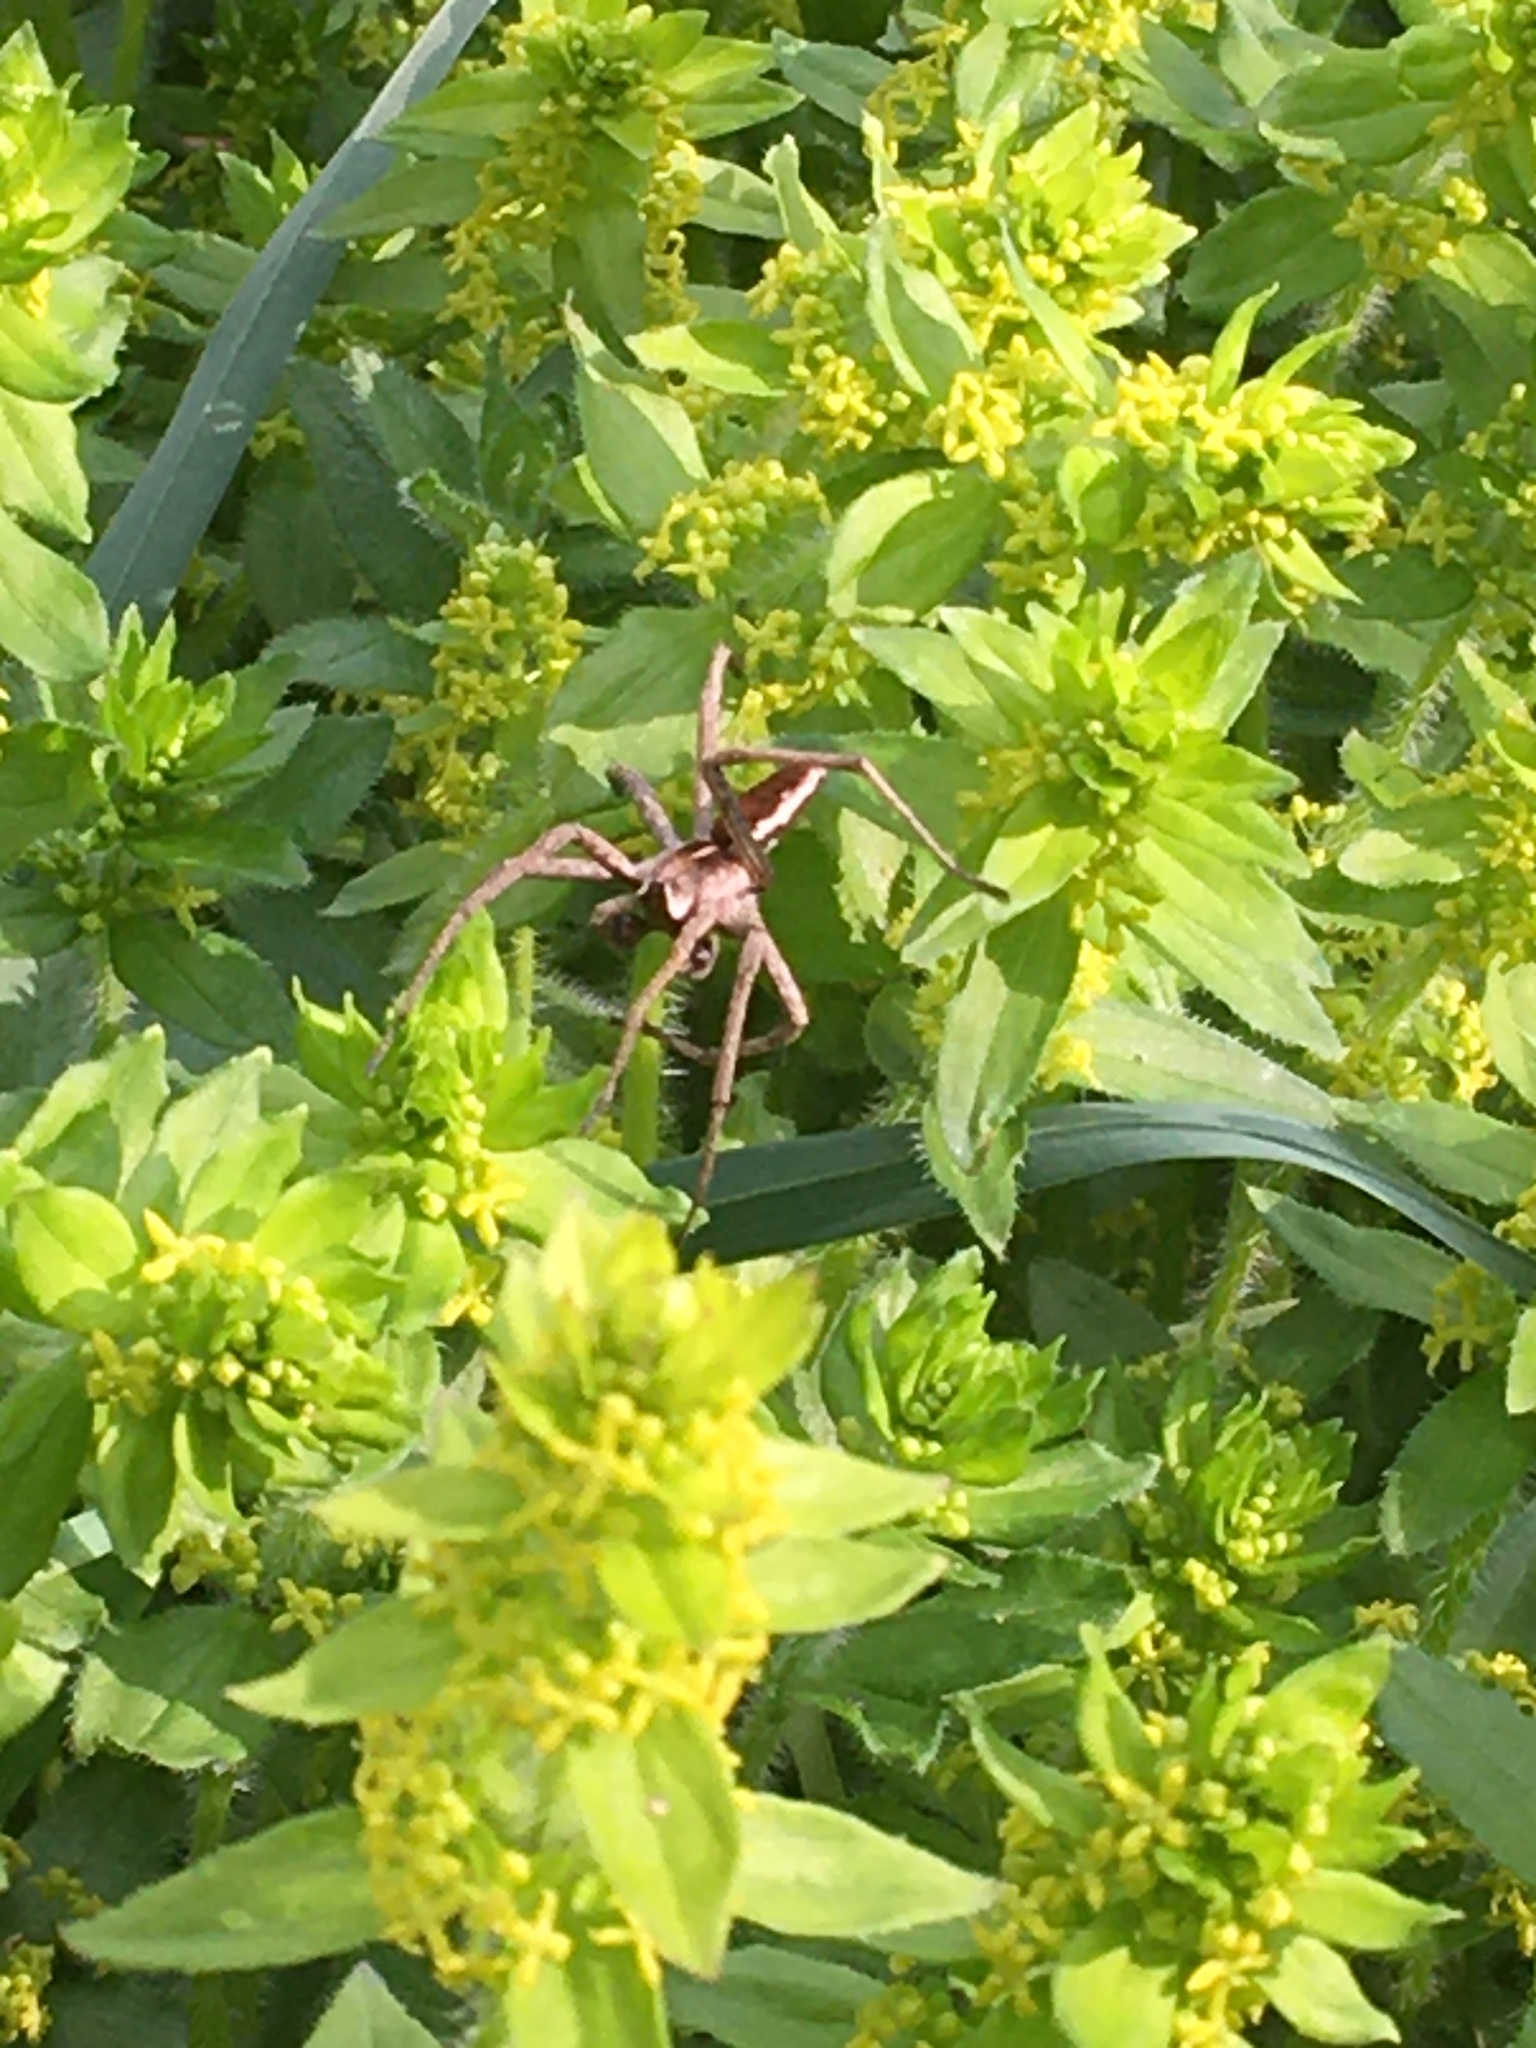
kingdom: Animalia
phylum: Arthropoda
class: Arachnida
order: Araneae
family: Pisauridae
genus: Pisaura
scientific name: Pisaura mirabilis
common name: Tent spider
